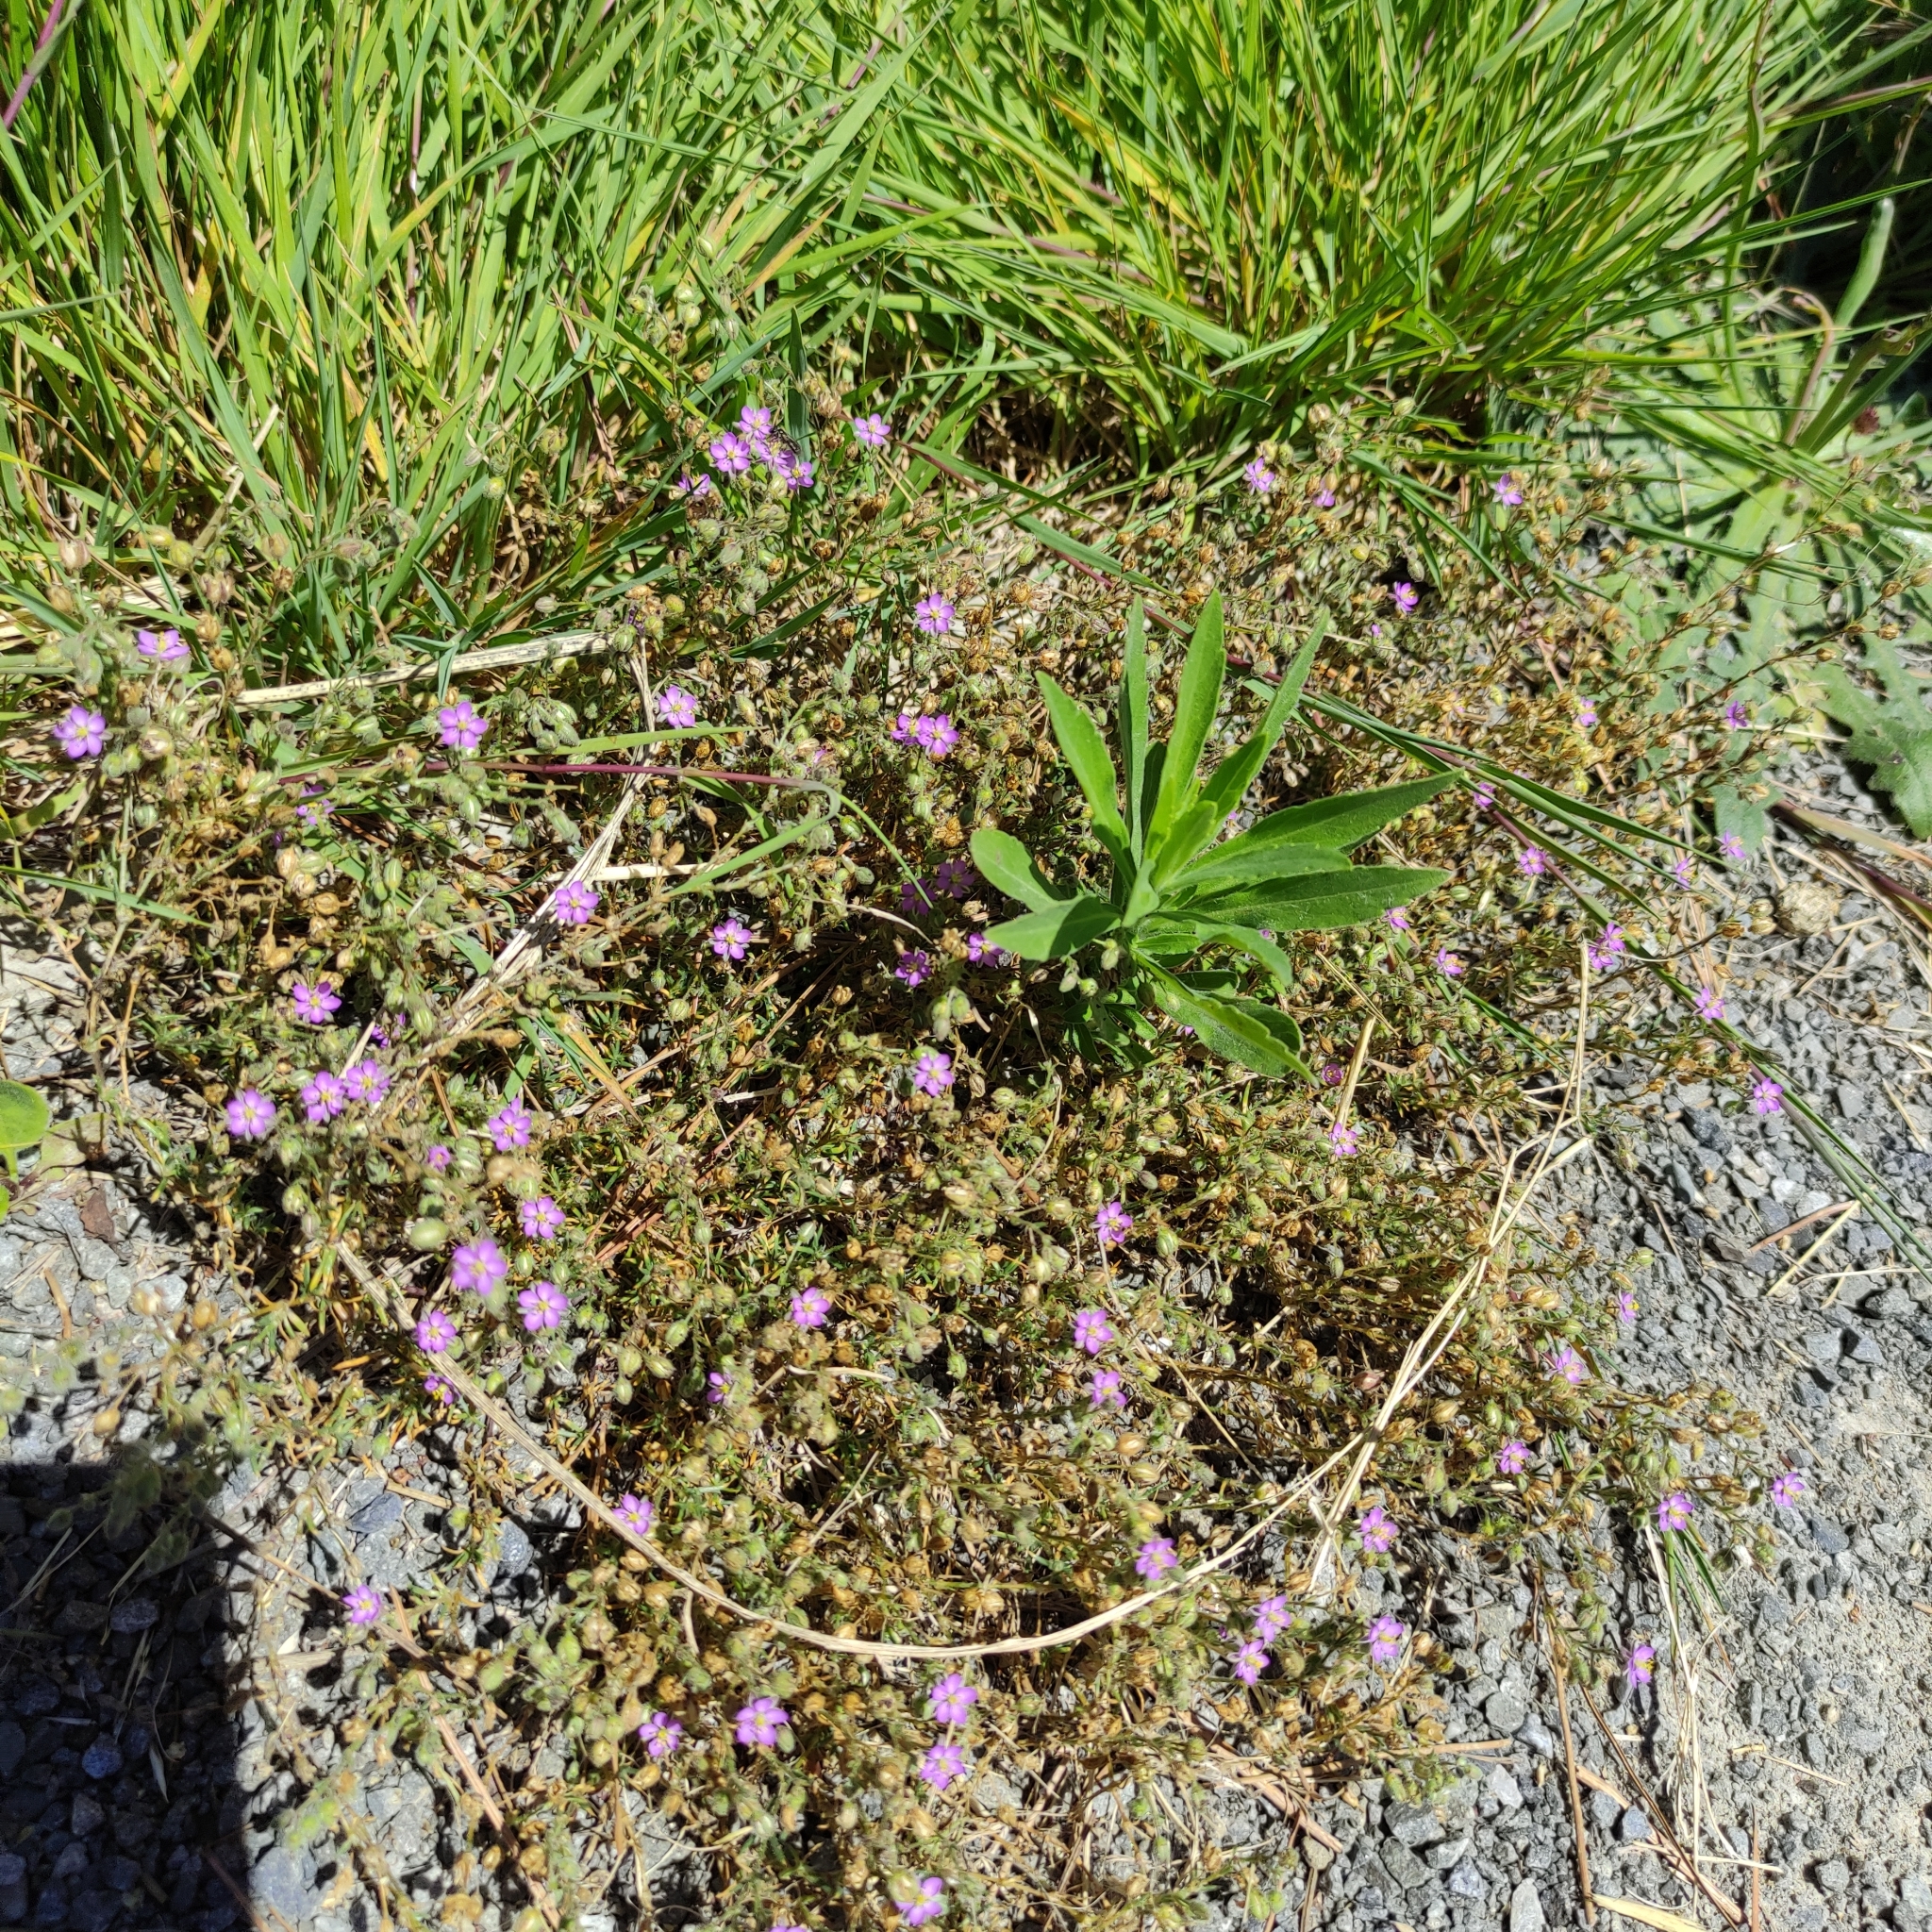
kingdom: Plantae
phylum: Tracheophyta
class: Magnoliopsida
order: Caryophyllales
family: Caryophyllaceae
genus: Spergularia
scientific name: Spergularia rubra
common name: Red sand-spurrey
